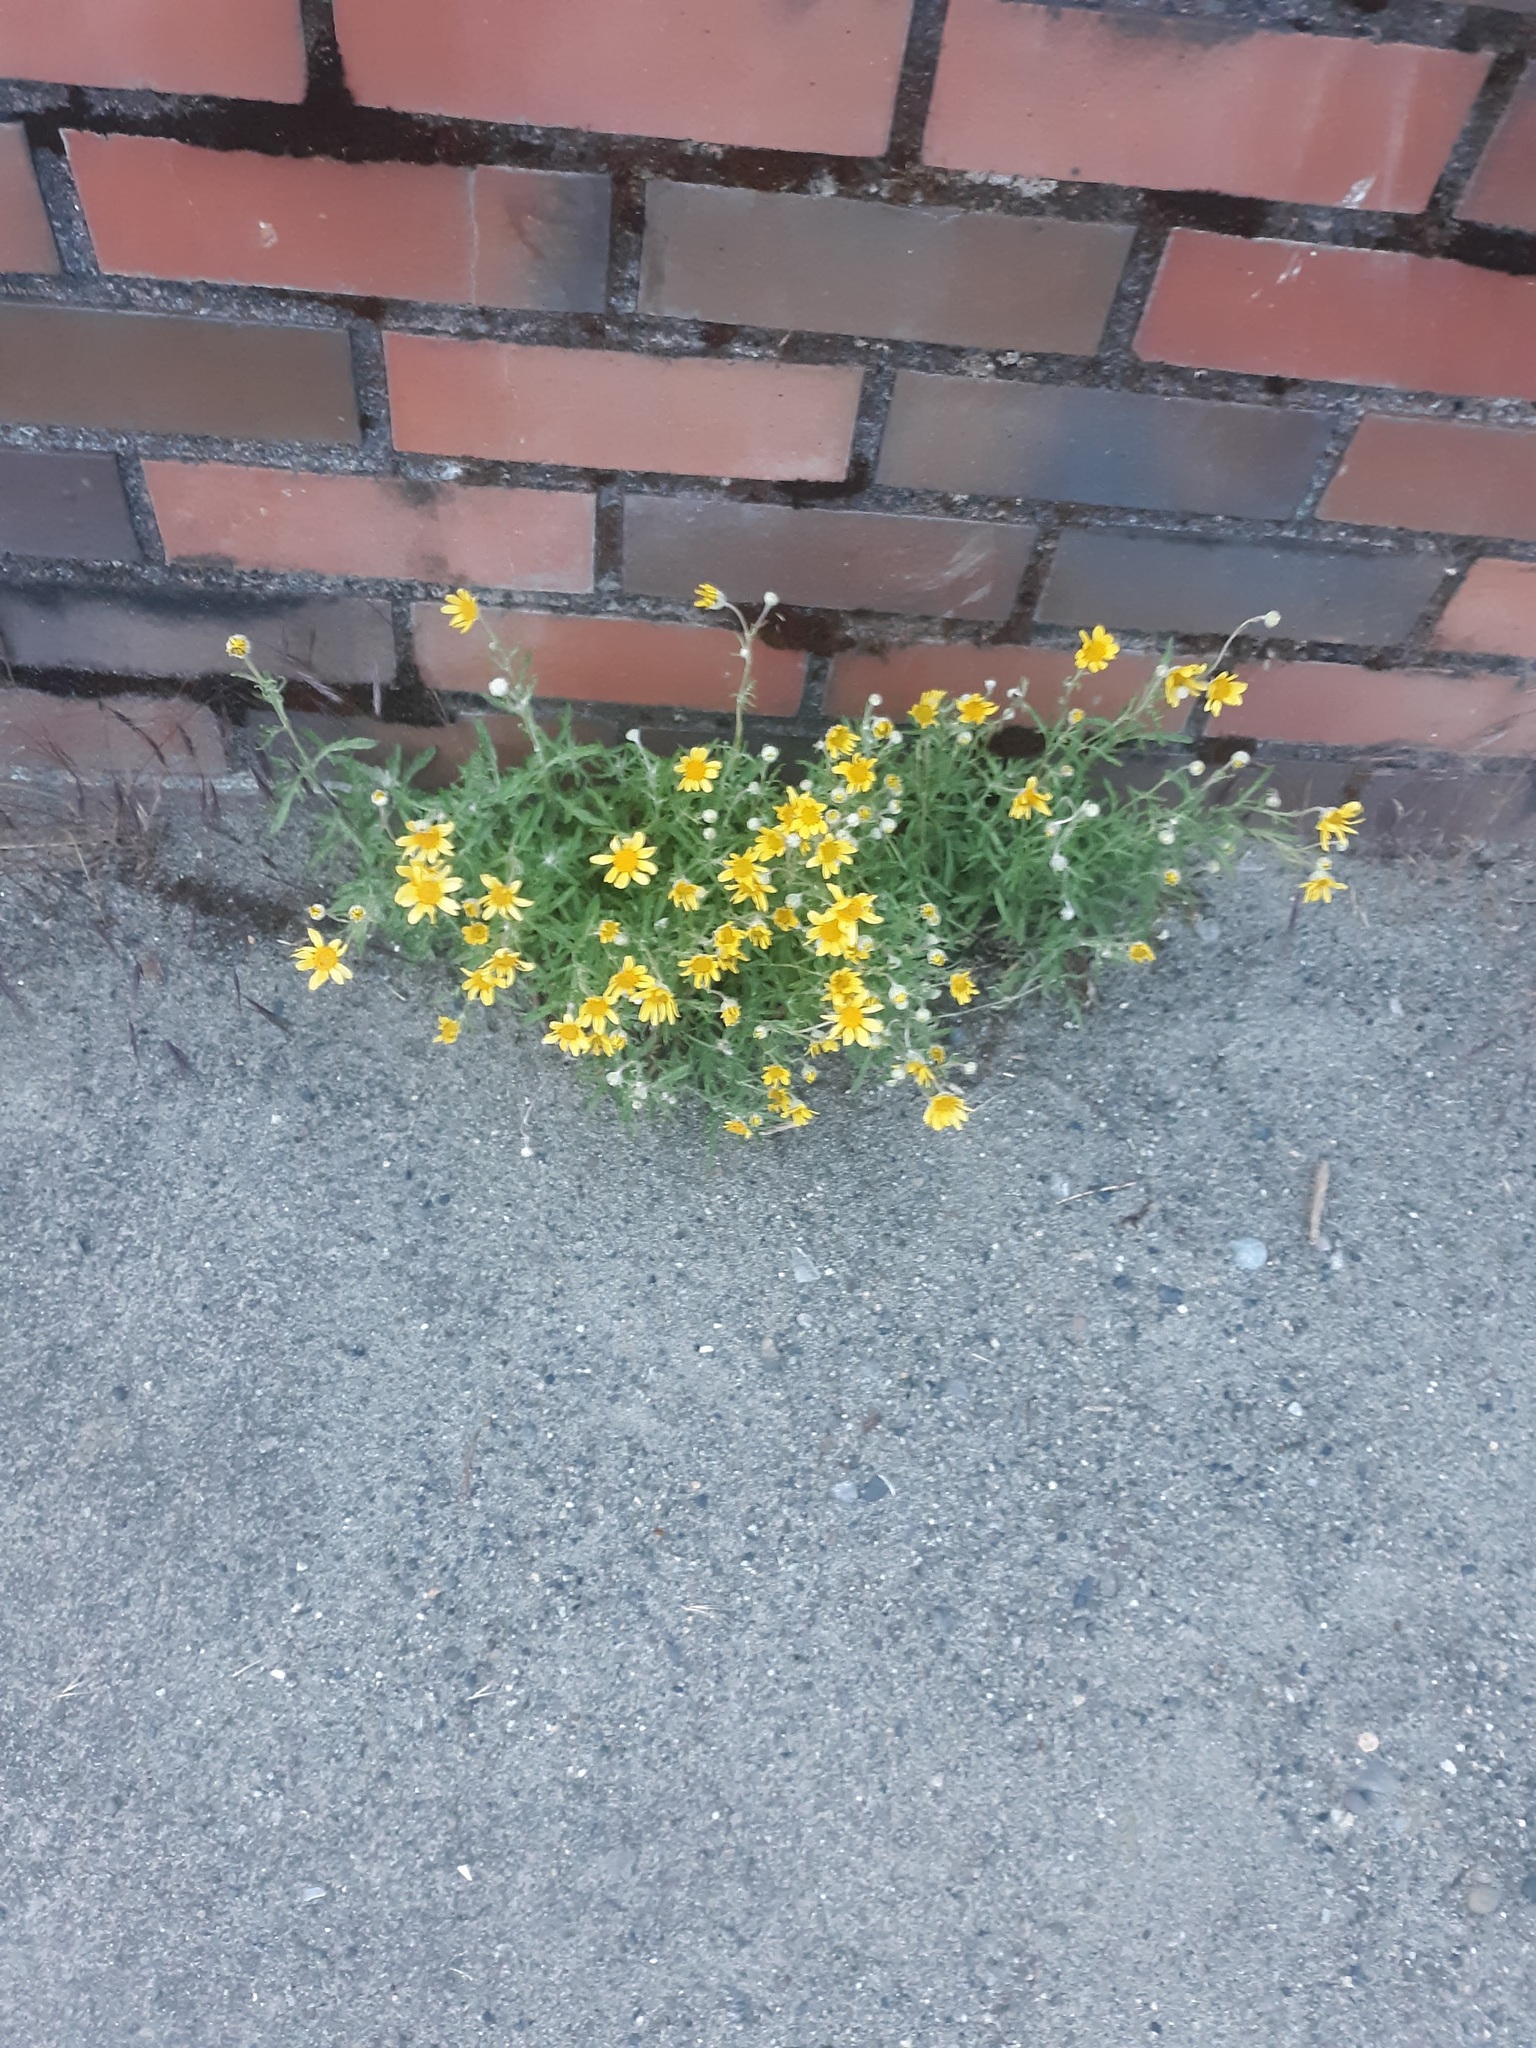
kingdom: Plantae
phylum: Tracheophyta
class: Magnoliopsida
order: Asterales
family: Asteraceae
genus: Eriophyllum
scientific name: Eriophyllum lanatum
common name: Common woolly-sunflower
